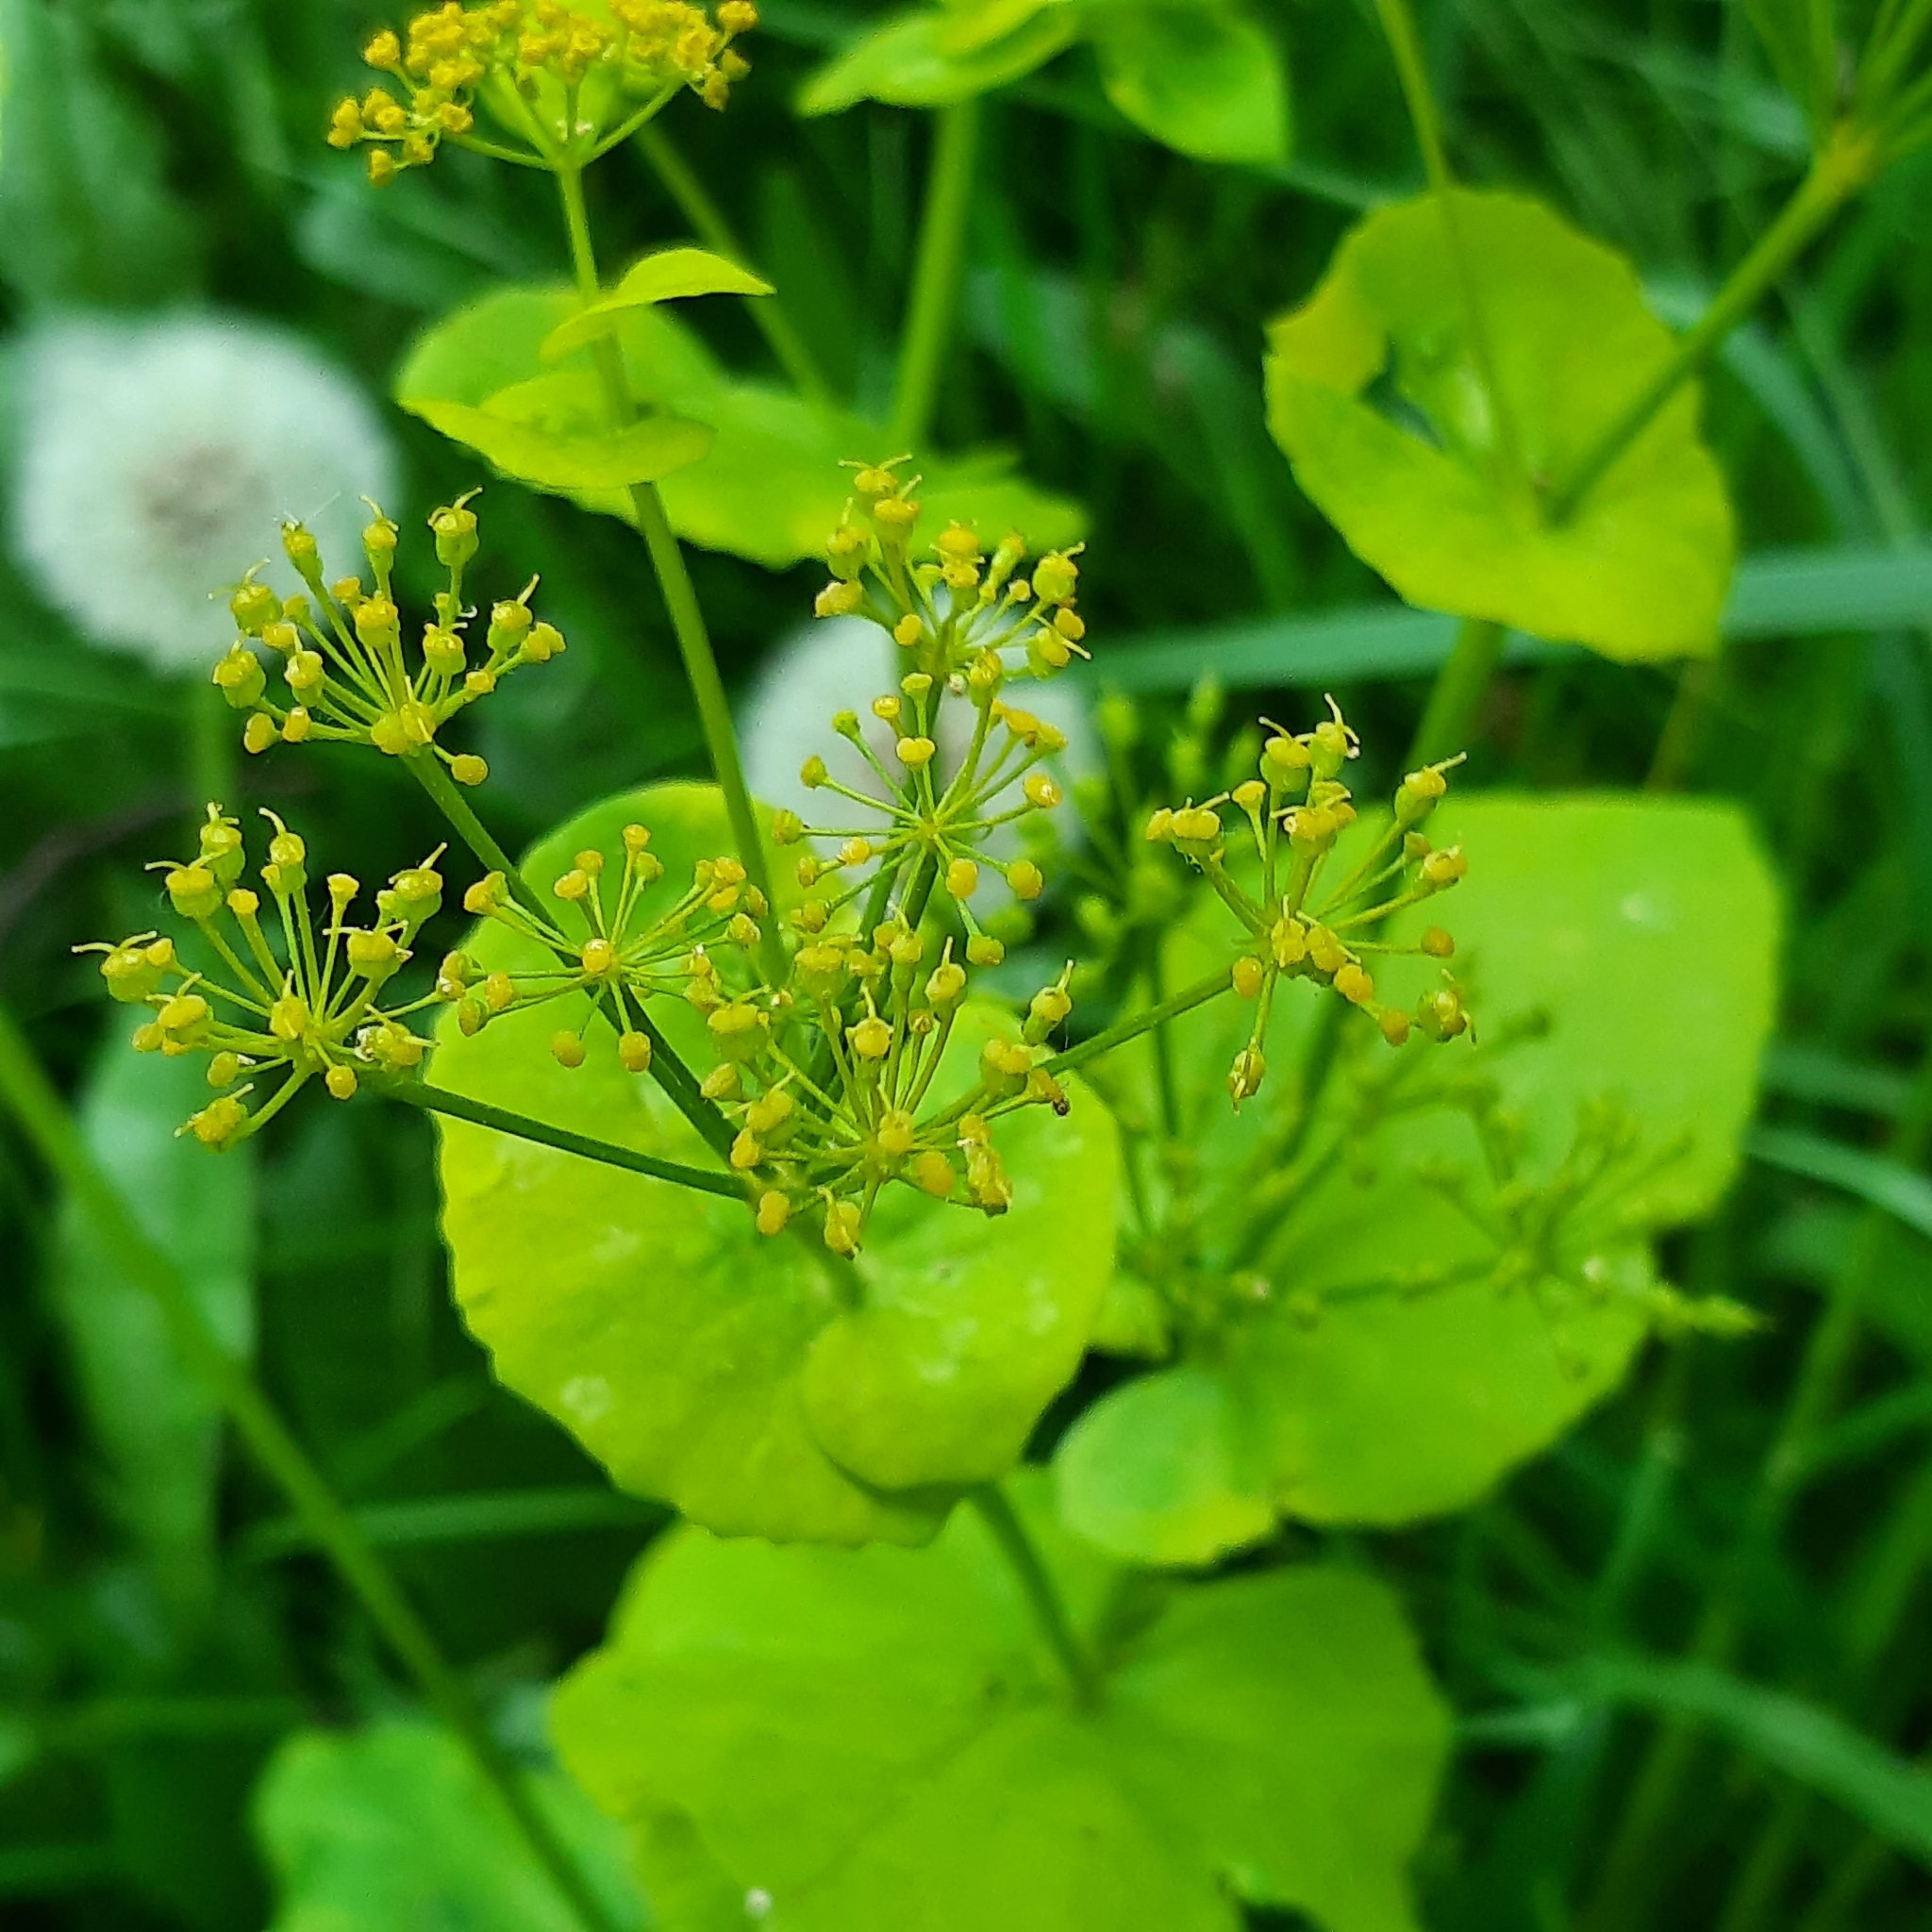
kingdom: Plantae
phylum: Tracheophyta
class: Magnoliopsida
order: Apiales
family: Apiaceae
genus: Smyrnium
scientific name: Smyrnium perfoliatum
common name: Perfoliate alexanders
